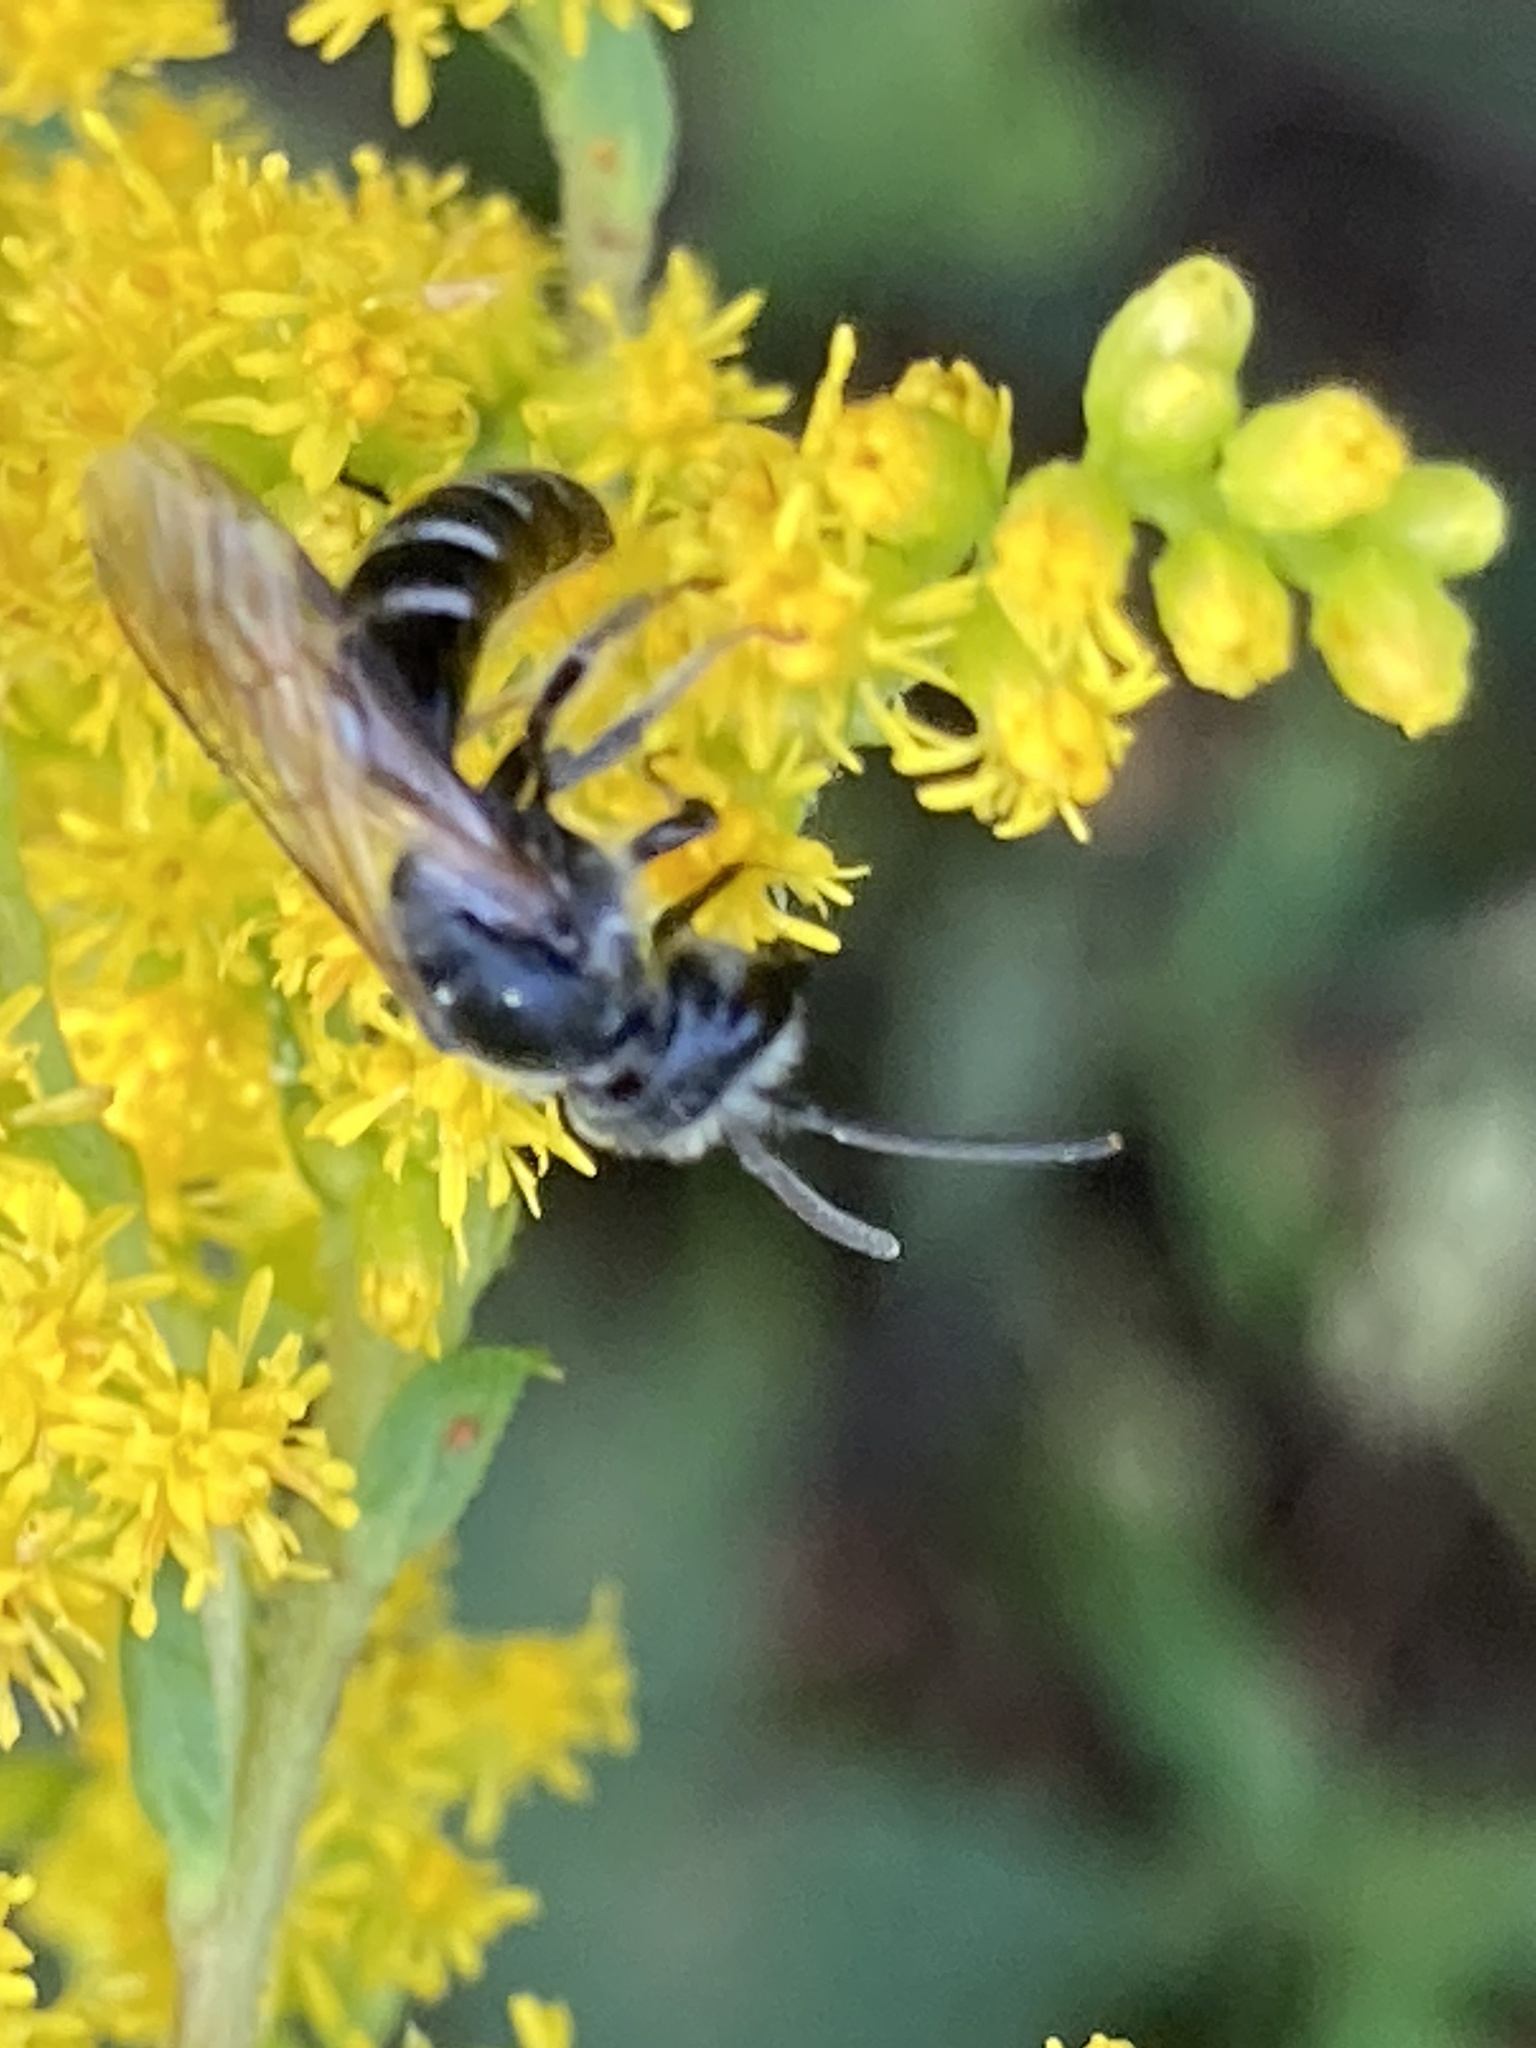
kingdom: Animalia
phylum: Arthropoda
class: Insecta
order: Hymenoptera
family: Halictidae
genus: Lasioglossum
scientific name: Lasioglossum coriaceum
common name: Leathery sweat bee
